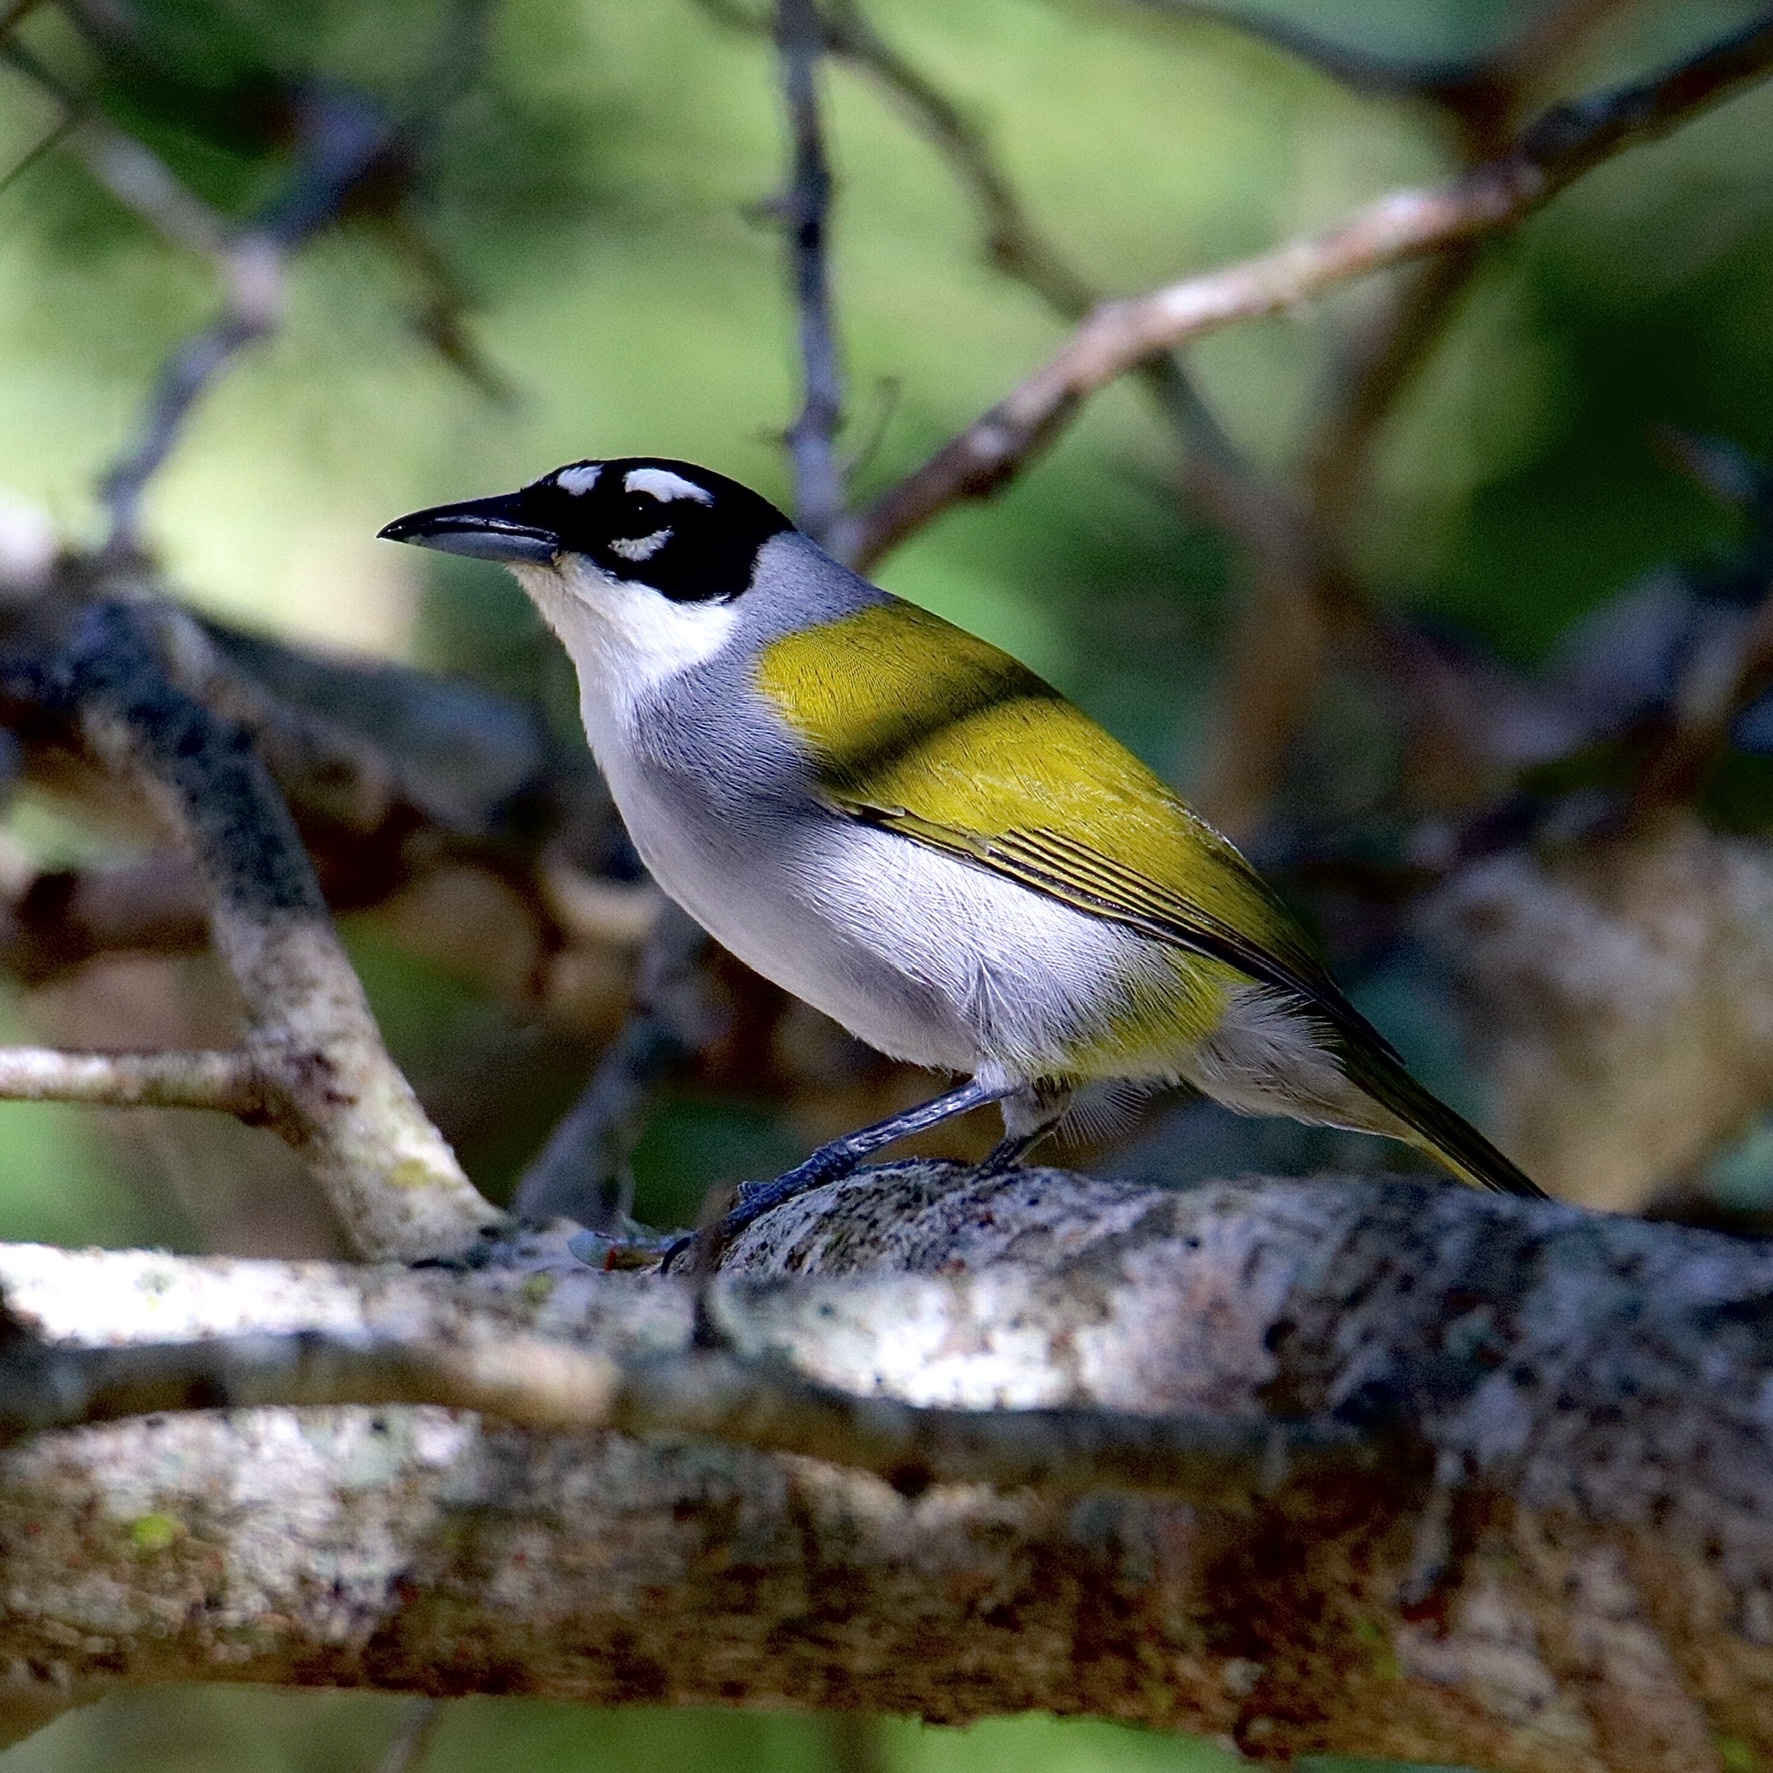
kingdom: Animalia
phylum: Chordata
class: Aves
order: Passeriformes
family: Phaenicophilidae
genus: Phaenicophilus
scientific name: Phaenicophilus palmarum
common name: Black-crowned palm-tanager
